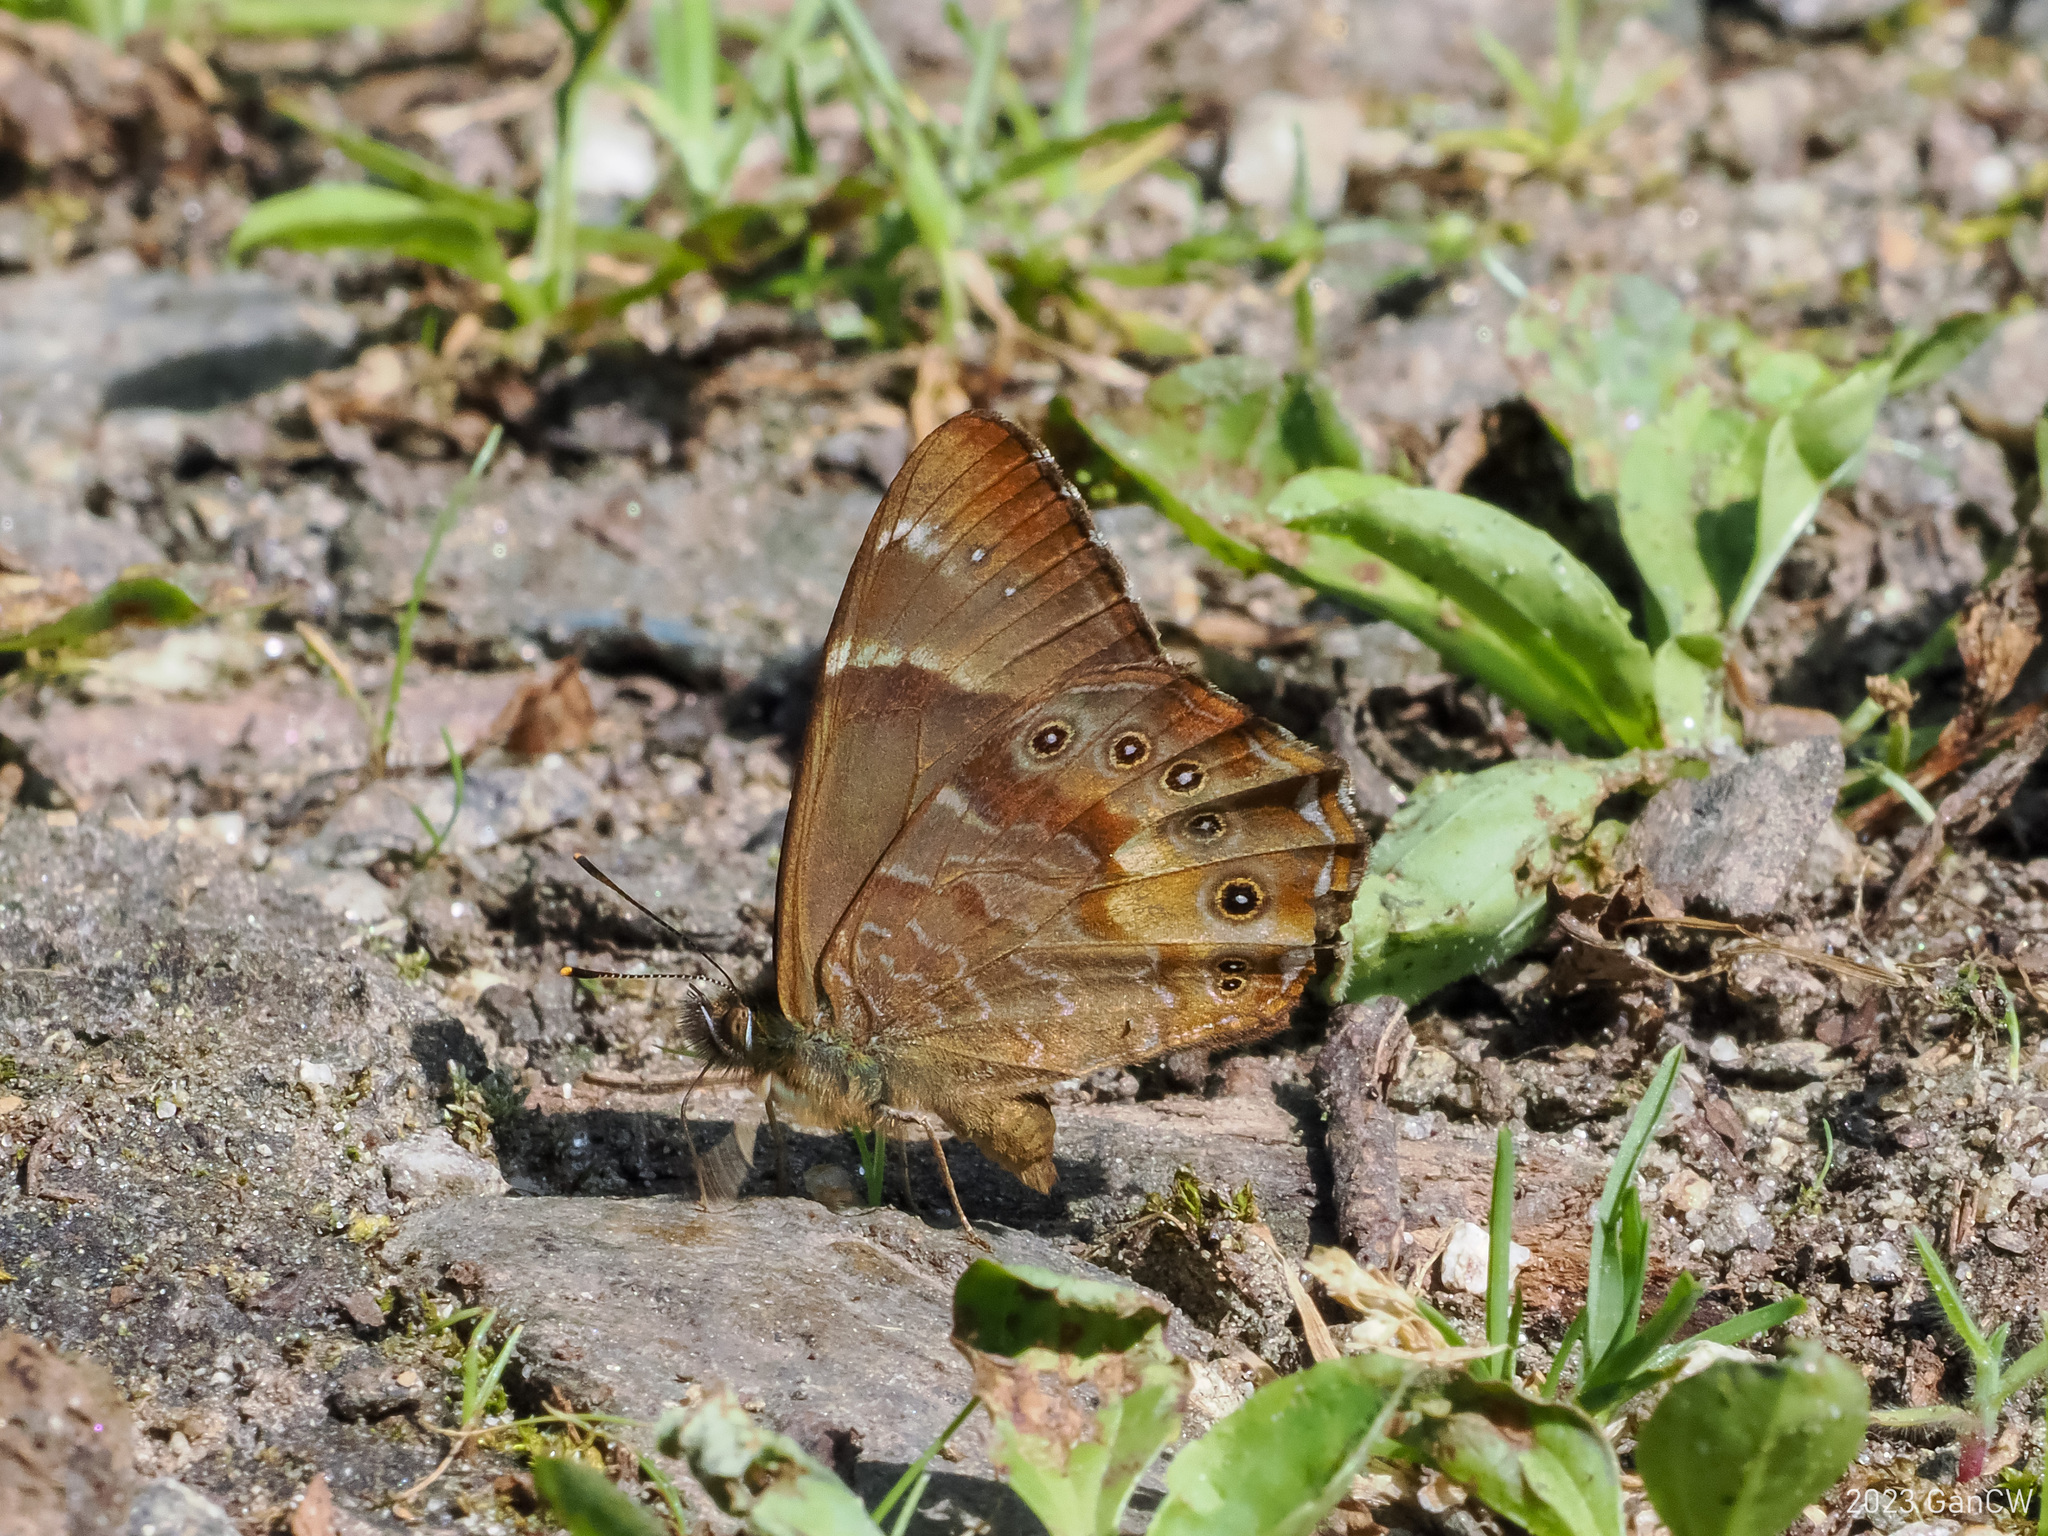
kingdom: Animalia
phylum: Arthropoda
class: Insecta
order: Lepidoptera
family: Nymphalidae
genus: Lethe
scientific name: Lethe nicetas
